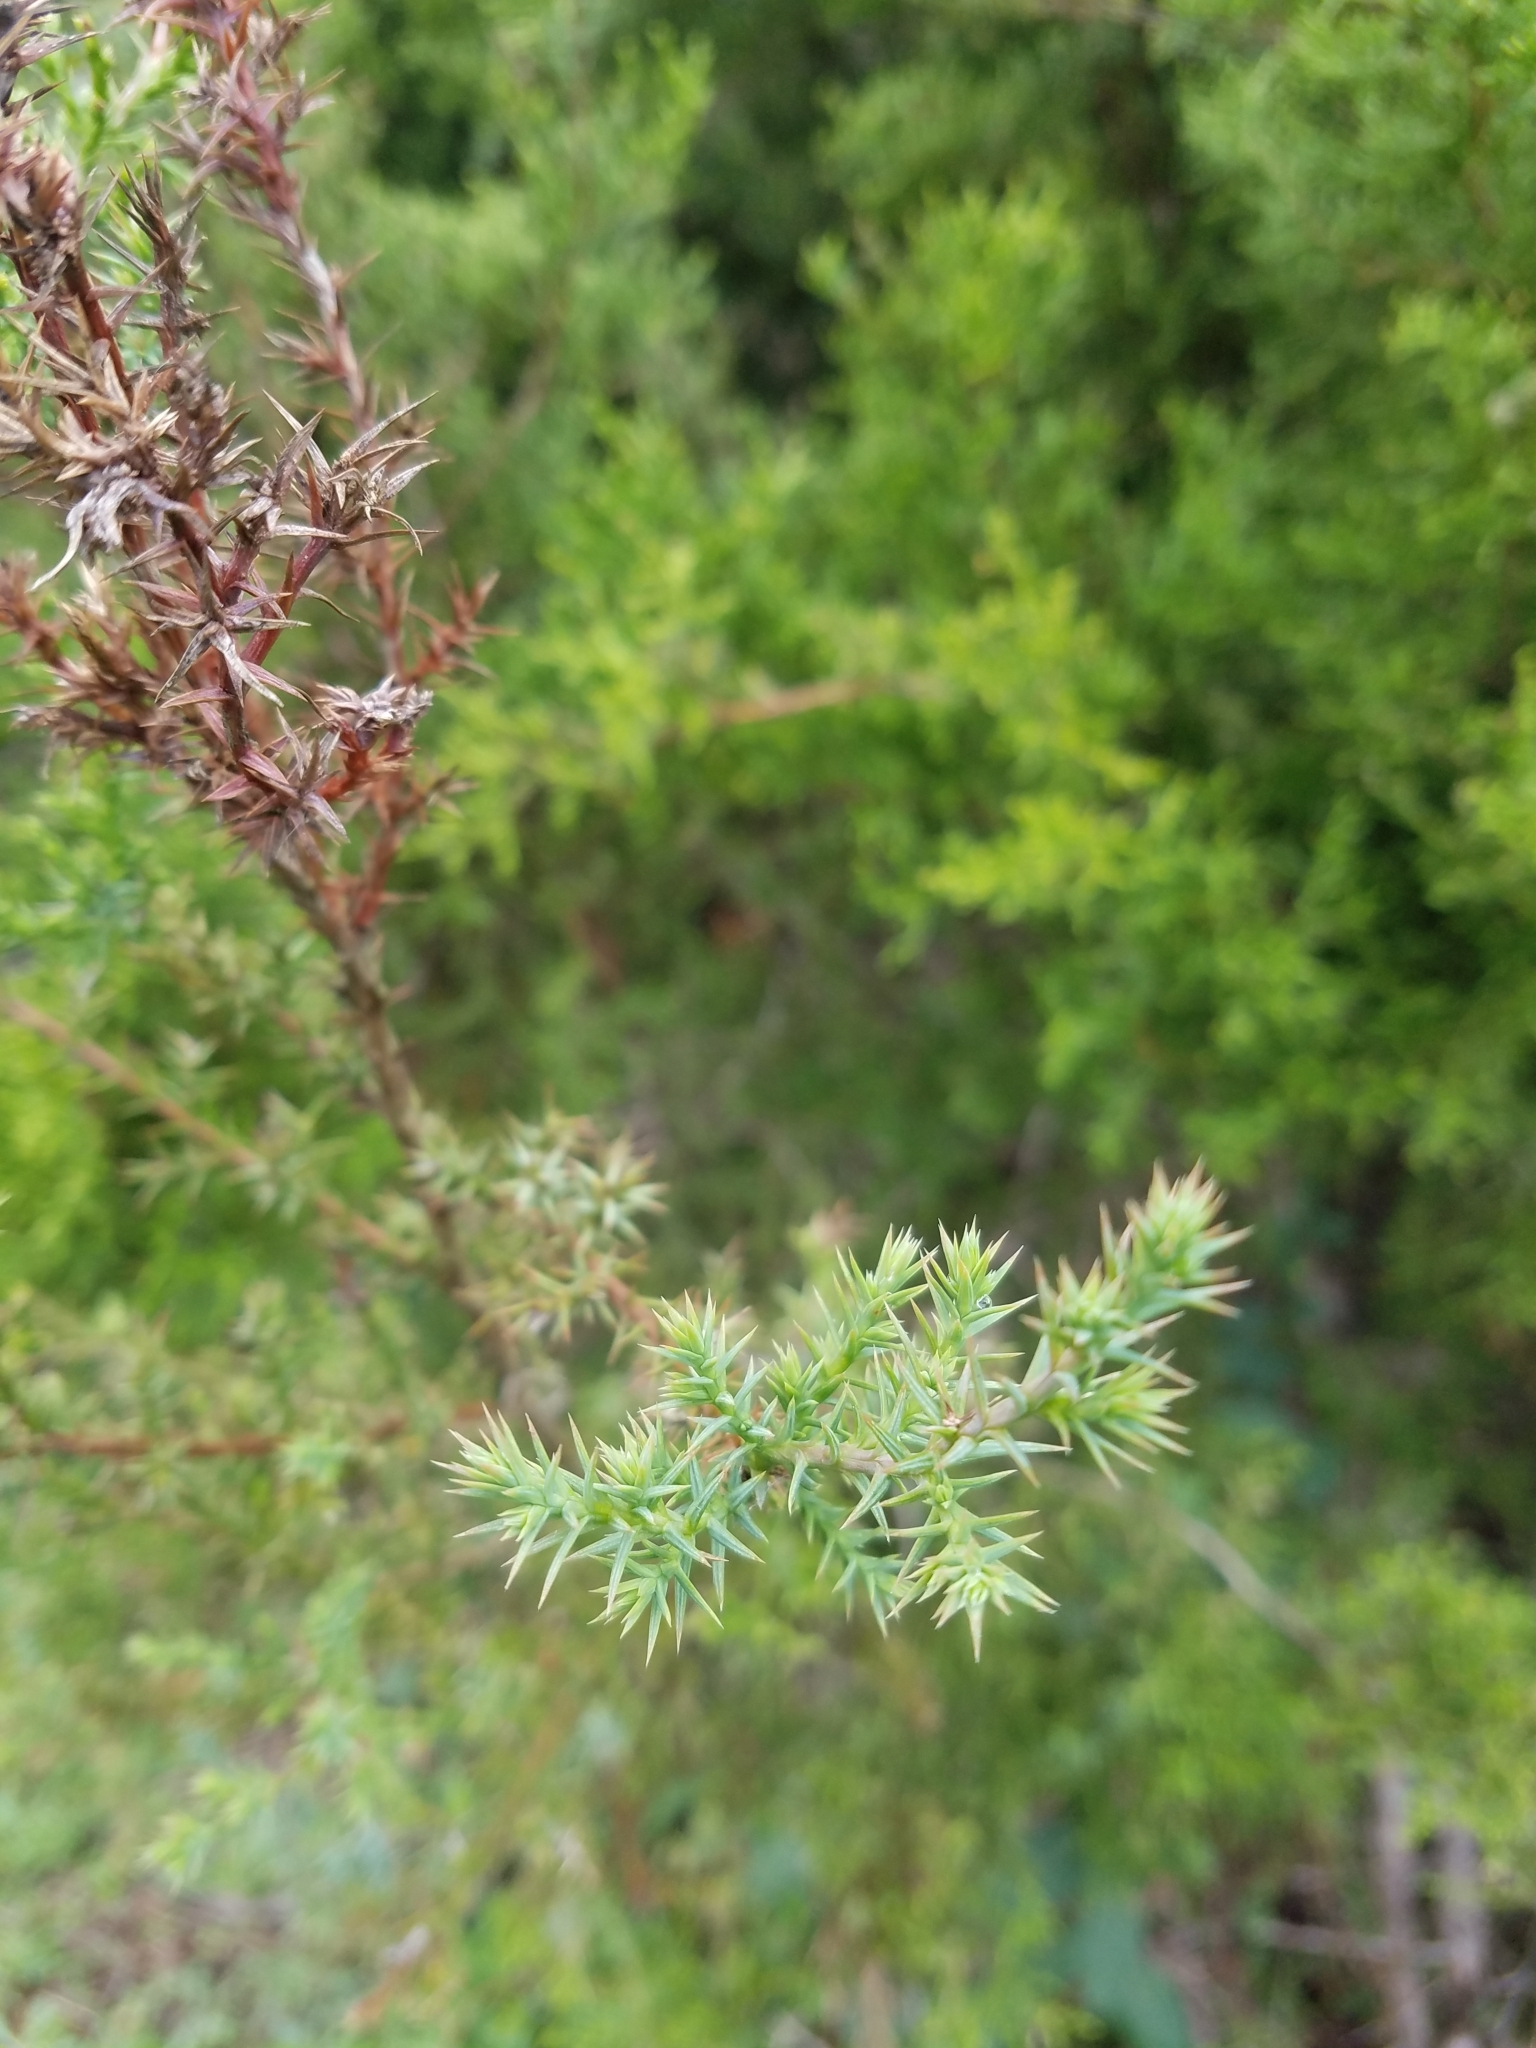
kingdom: Plantae
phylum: Tracheophyta
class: Pinopsida
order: Pinales
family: Cupressaceae
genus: Juniperus
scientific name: Juniperus ashei
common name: Mexican juniper
